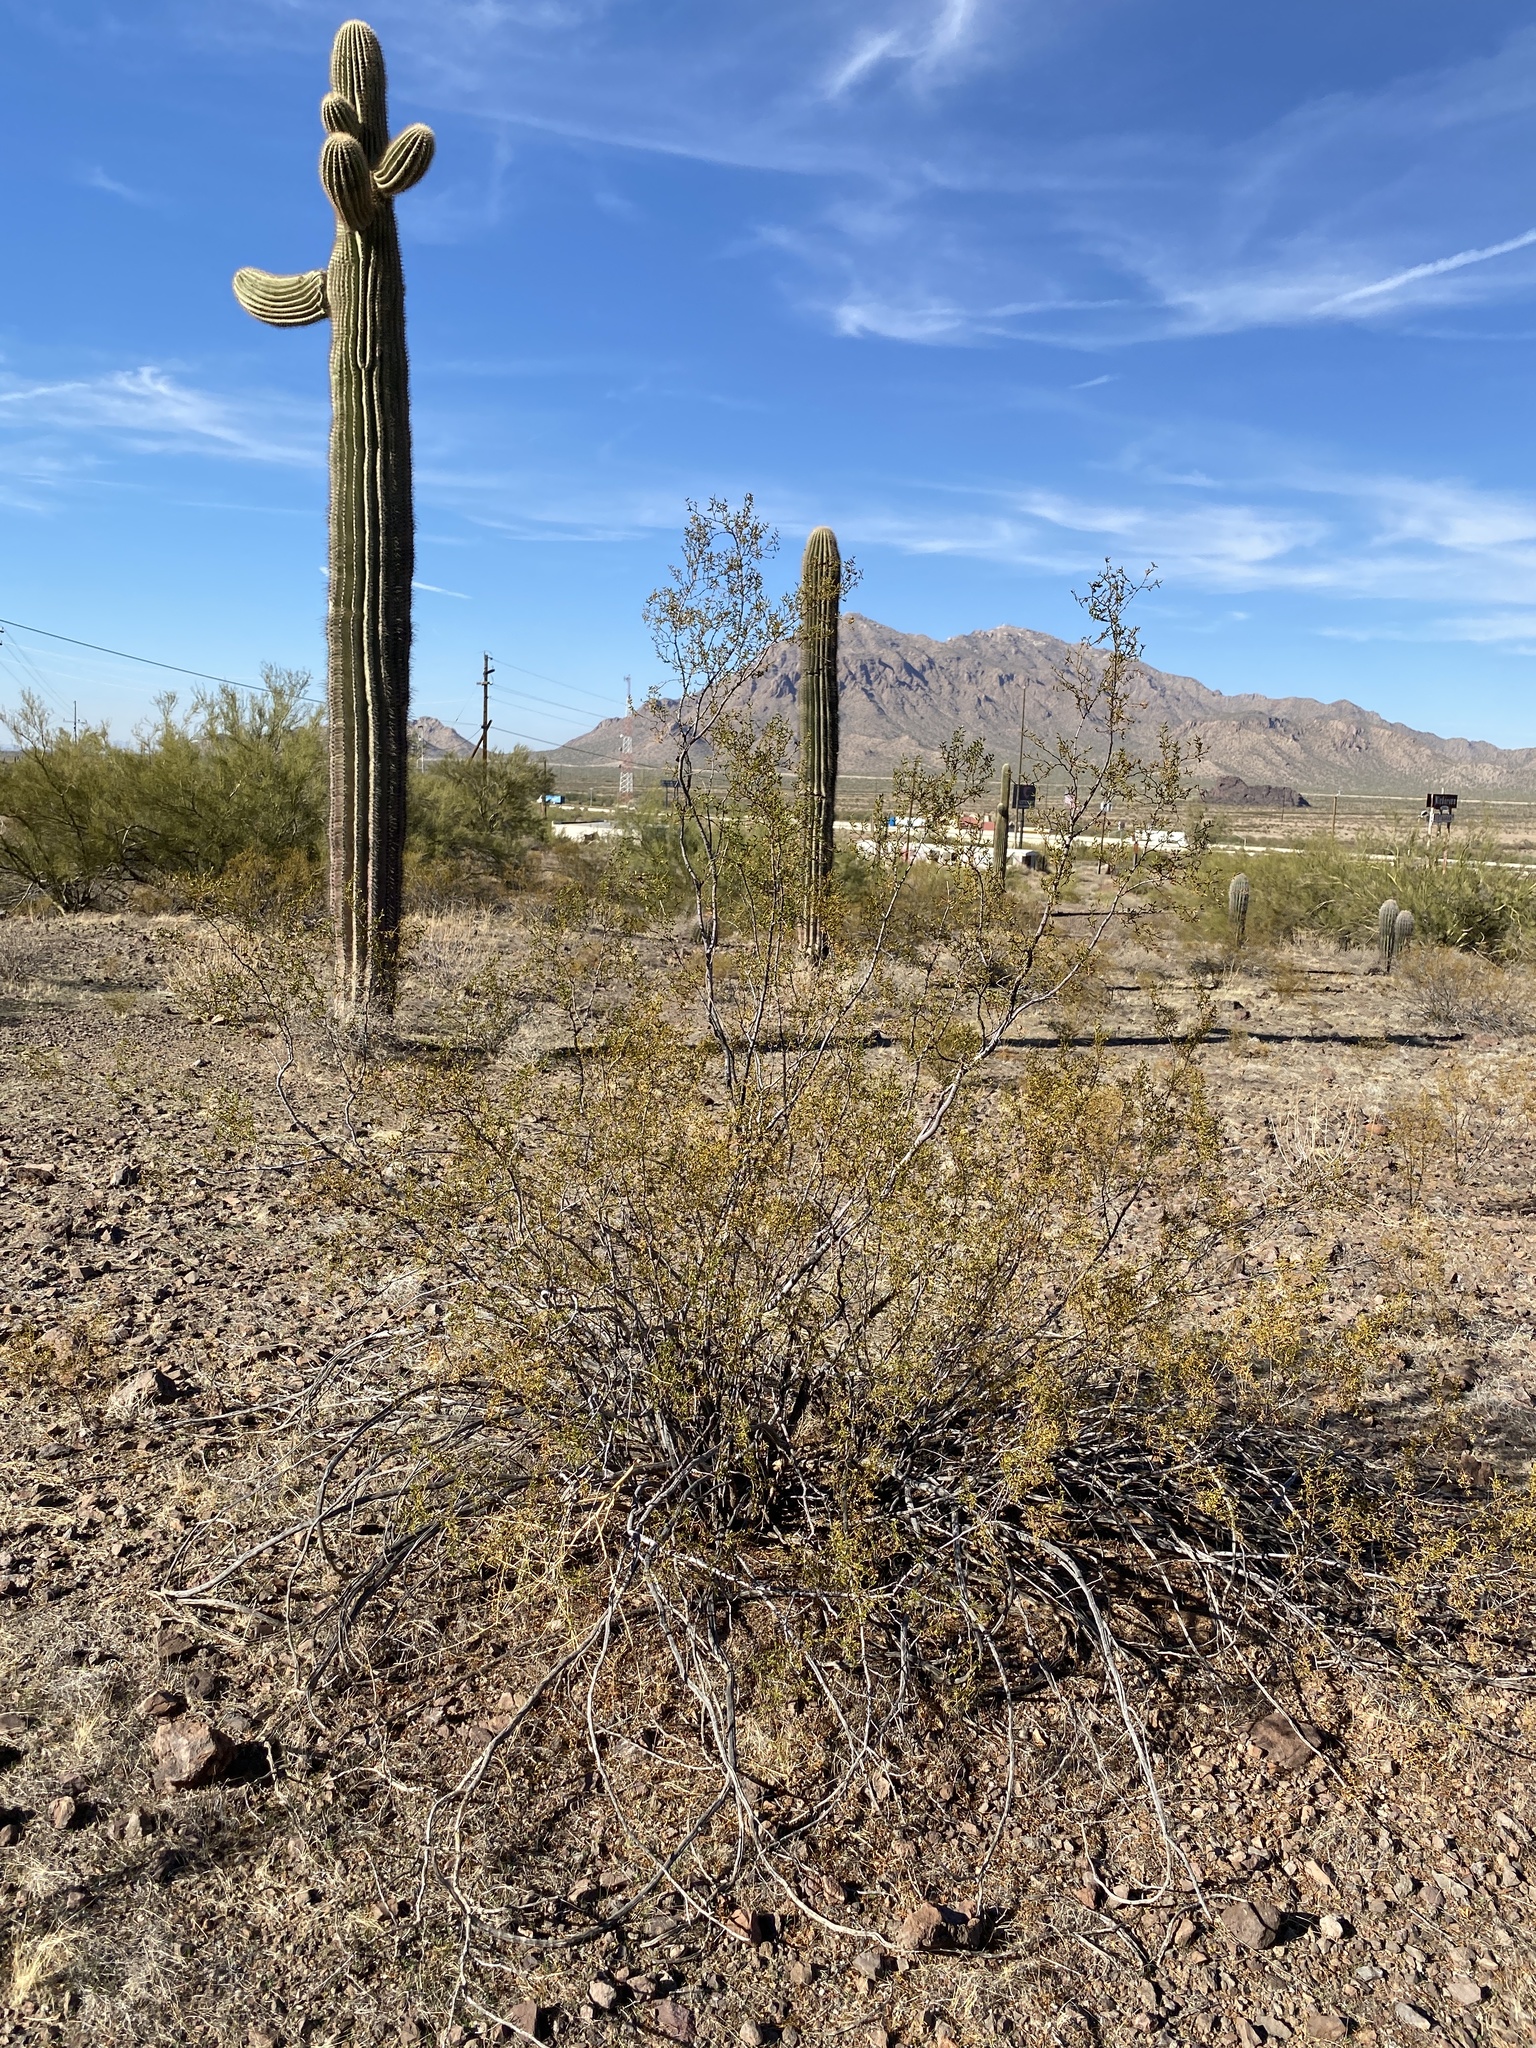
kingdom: Plantae
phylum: Tracheophyta
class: Magnoliopsida
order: Zygophyllales
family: Zygophyllaceae
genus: Larrea
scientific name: Larrea tridentata
